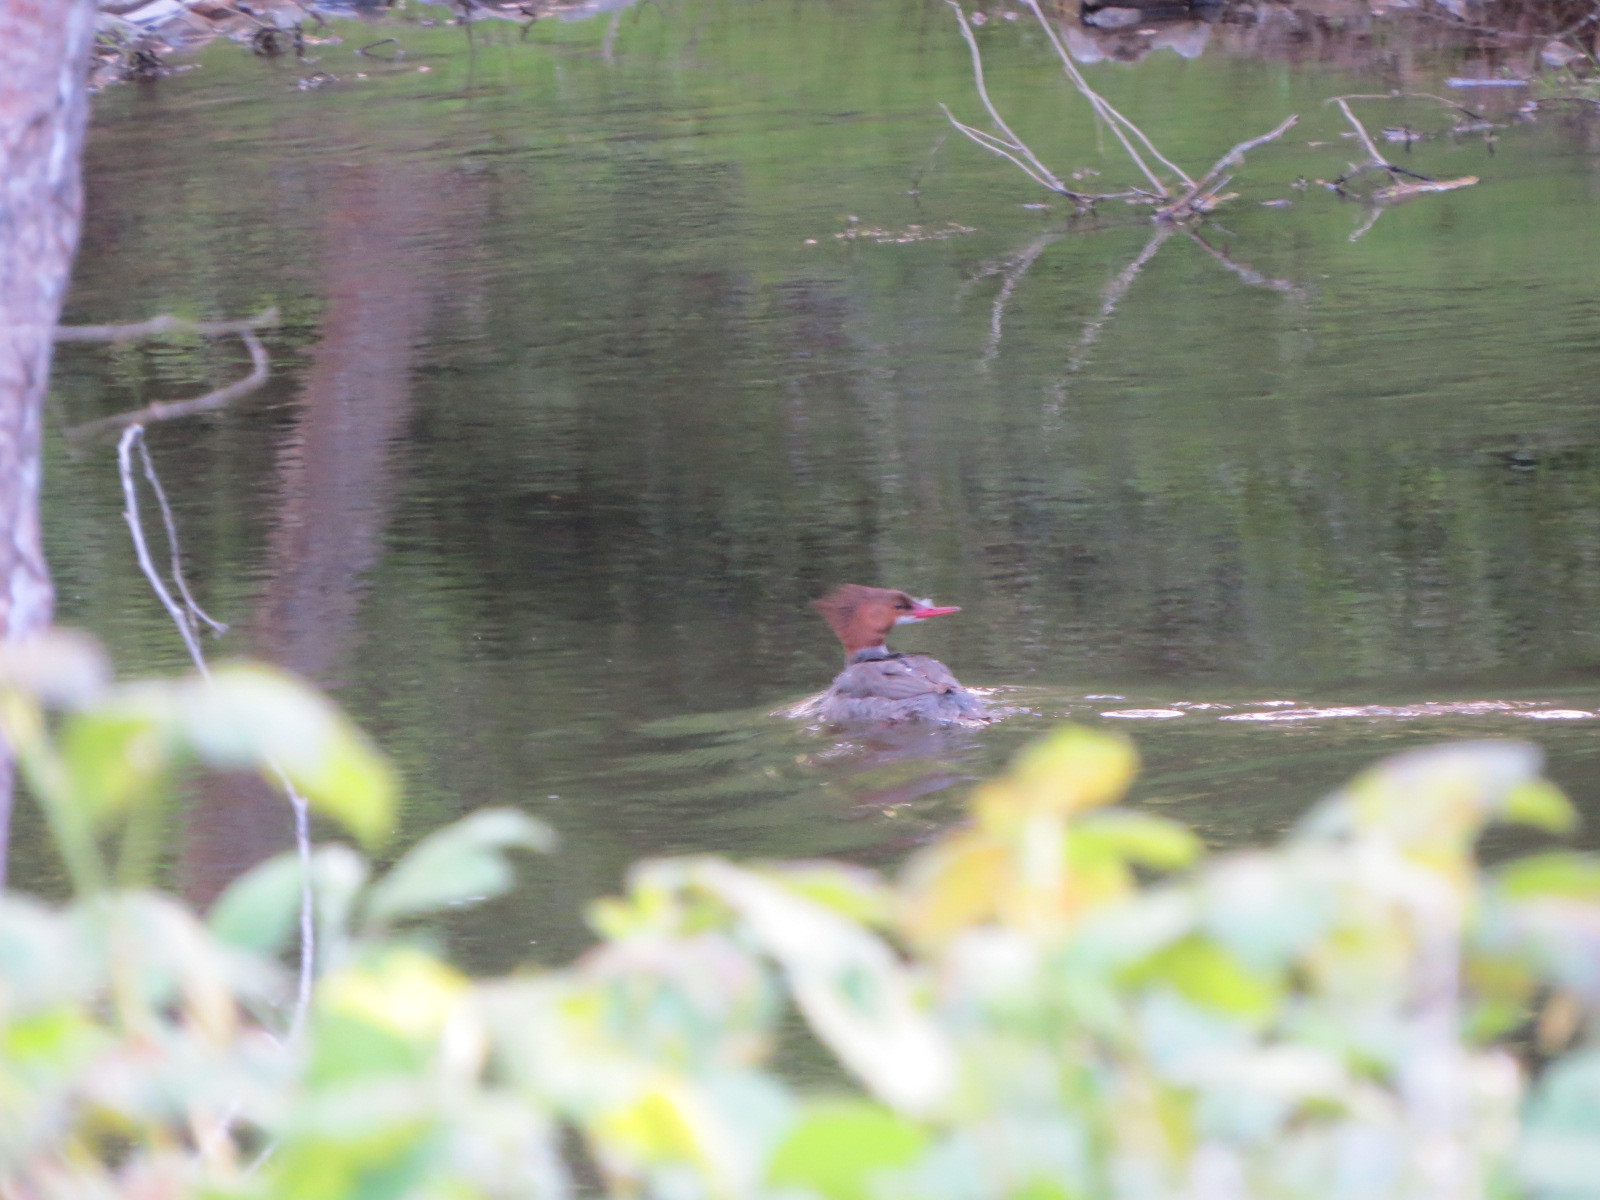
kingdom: Animalia
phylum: Chordata
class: Aves
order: Anseriformes
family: Anatidae
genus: Mergus
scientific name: Mergus merganser
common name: Common merganser
